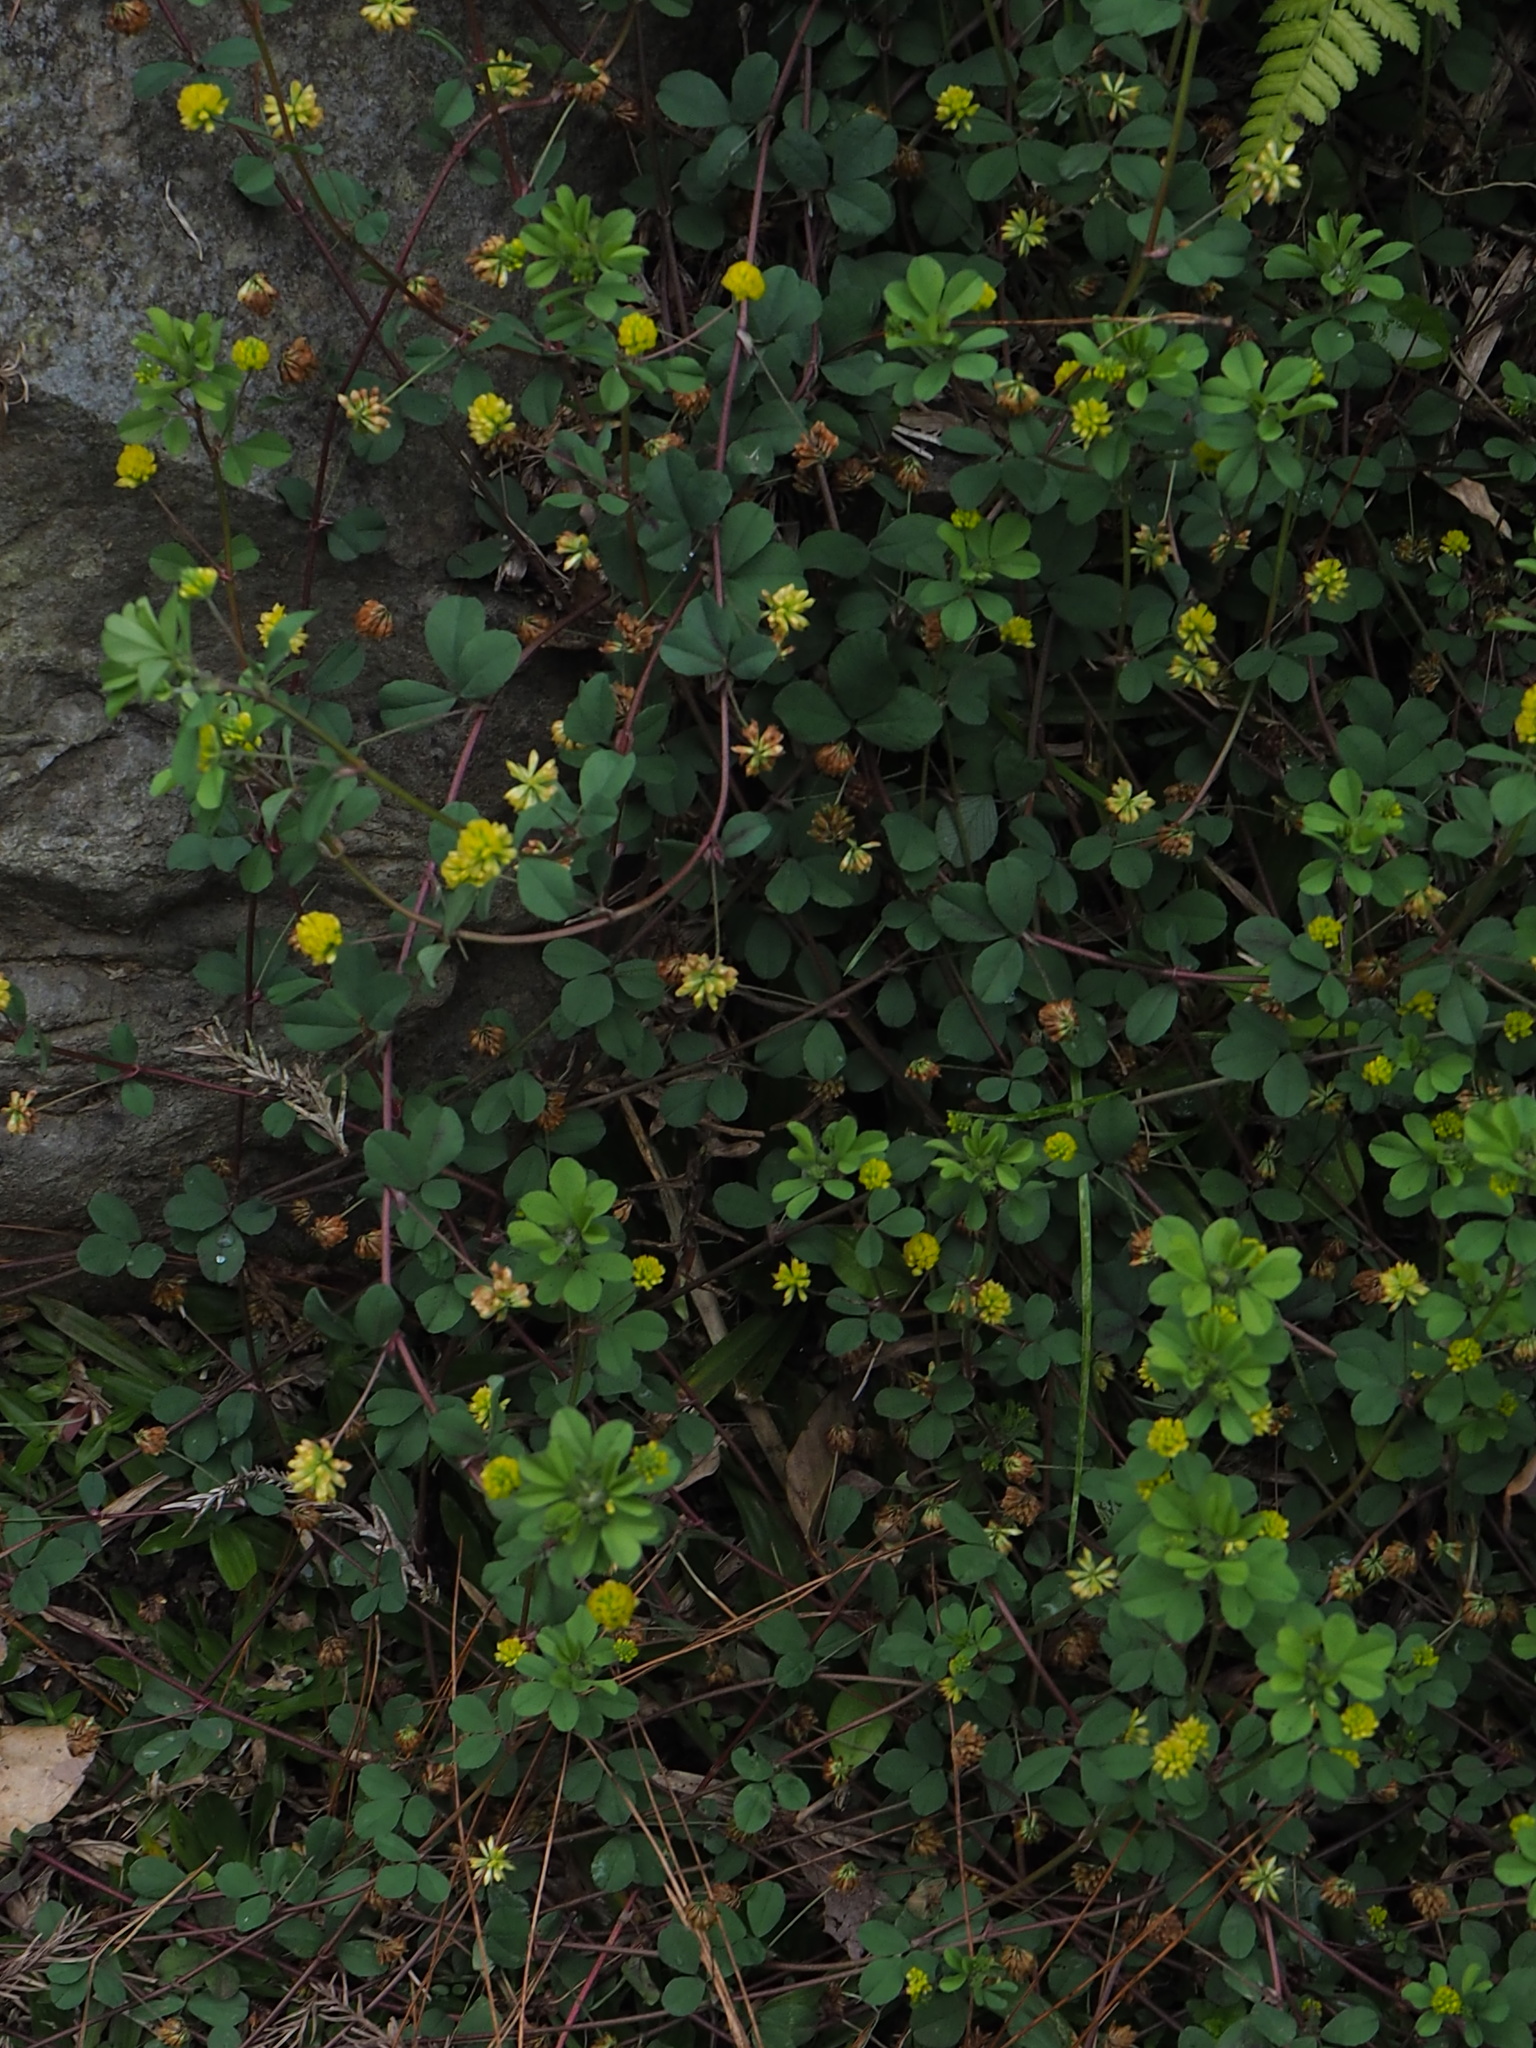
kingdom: Plantae
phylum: Tracheophyta
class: Magnoliopsida
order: Fabales
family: Fabaceae
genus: Trifolium
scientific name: Trifolium dubium
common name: Suckling clover
